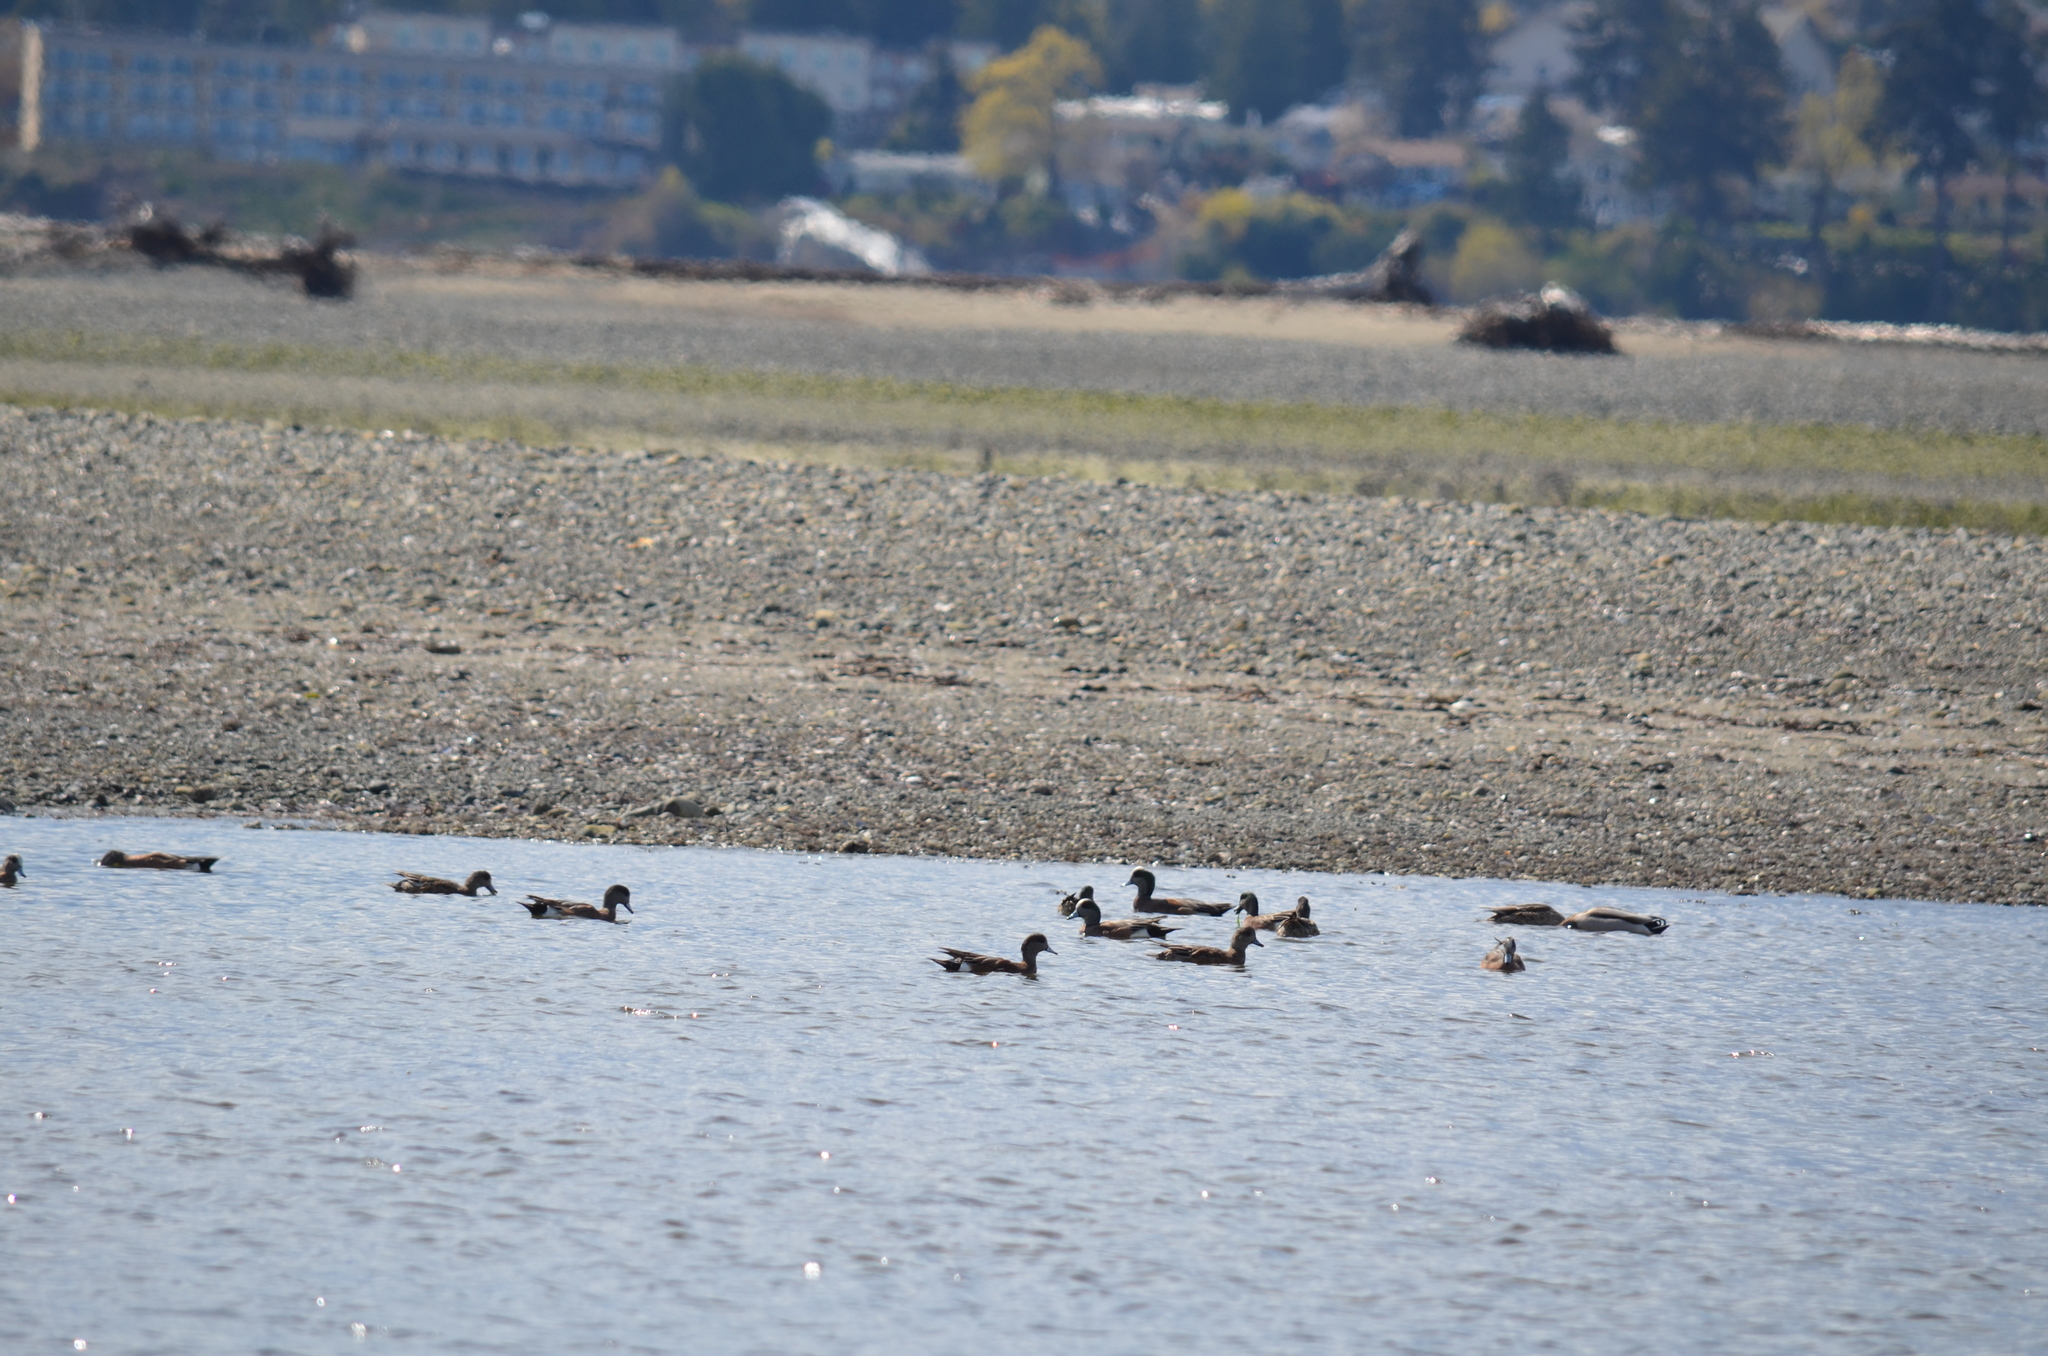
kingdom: Animalia
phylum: Chordata
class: Aves
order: Anseriformes
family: Anatidae
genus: Mareca
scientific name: Mareca americana
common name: American wigeon
